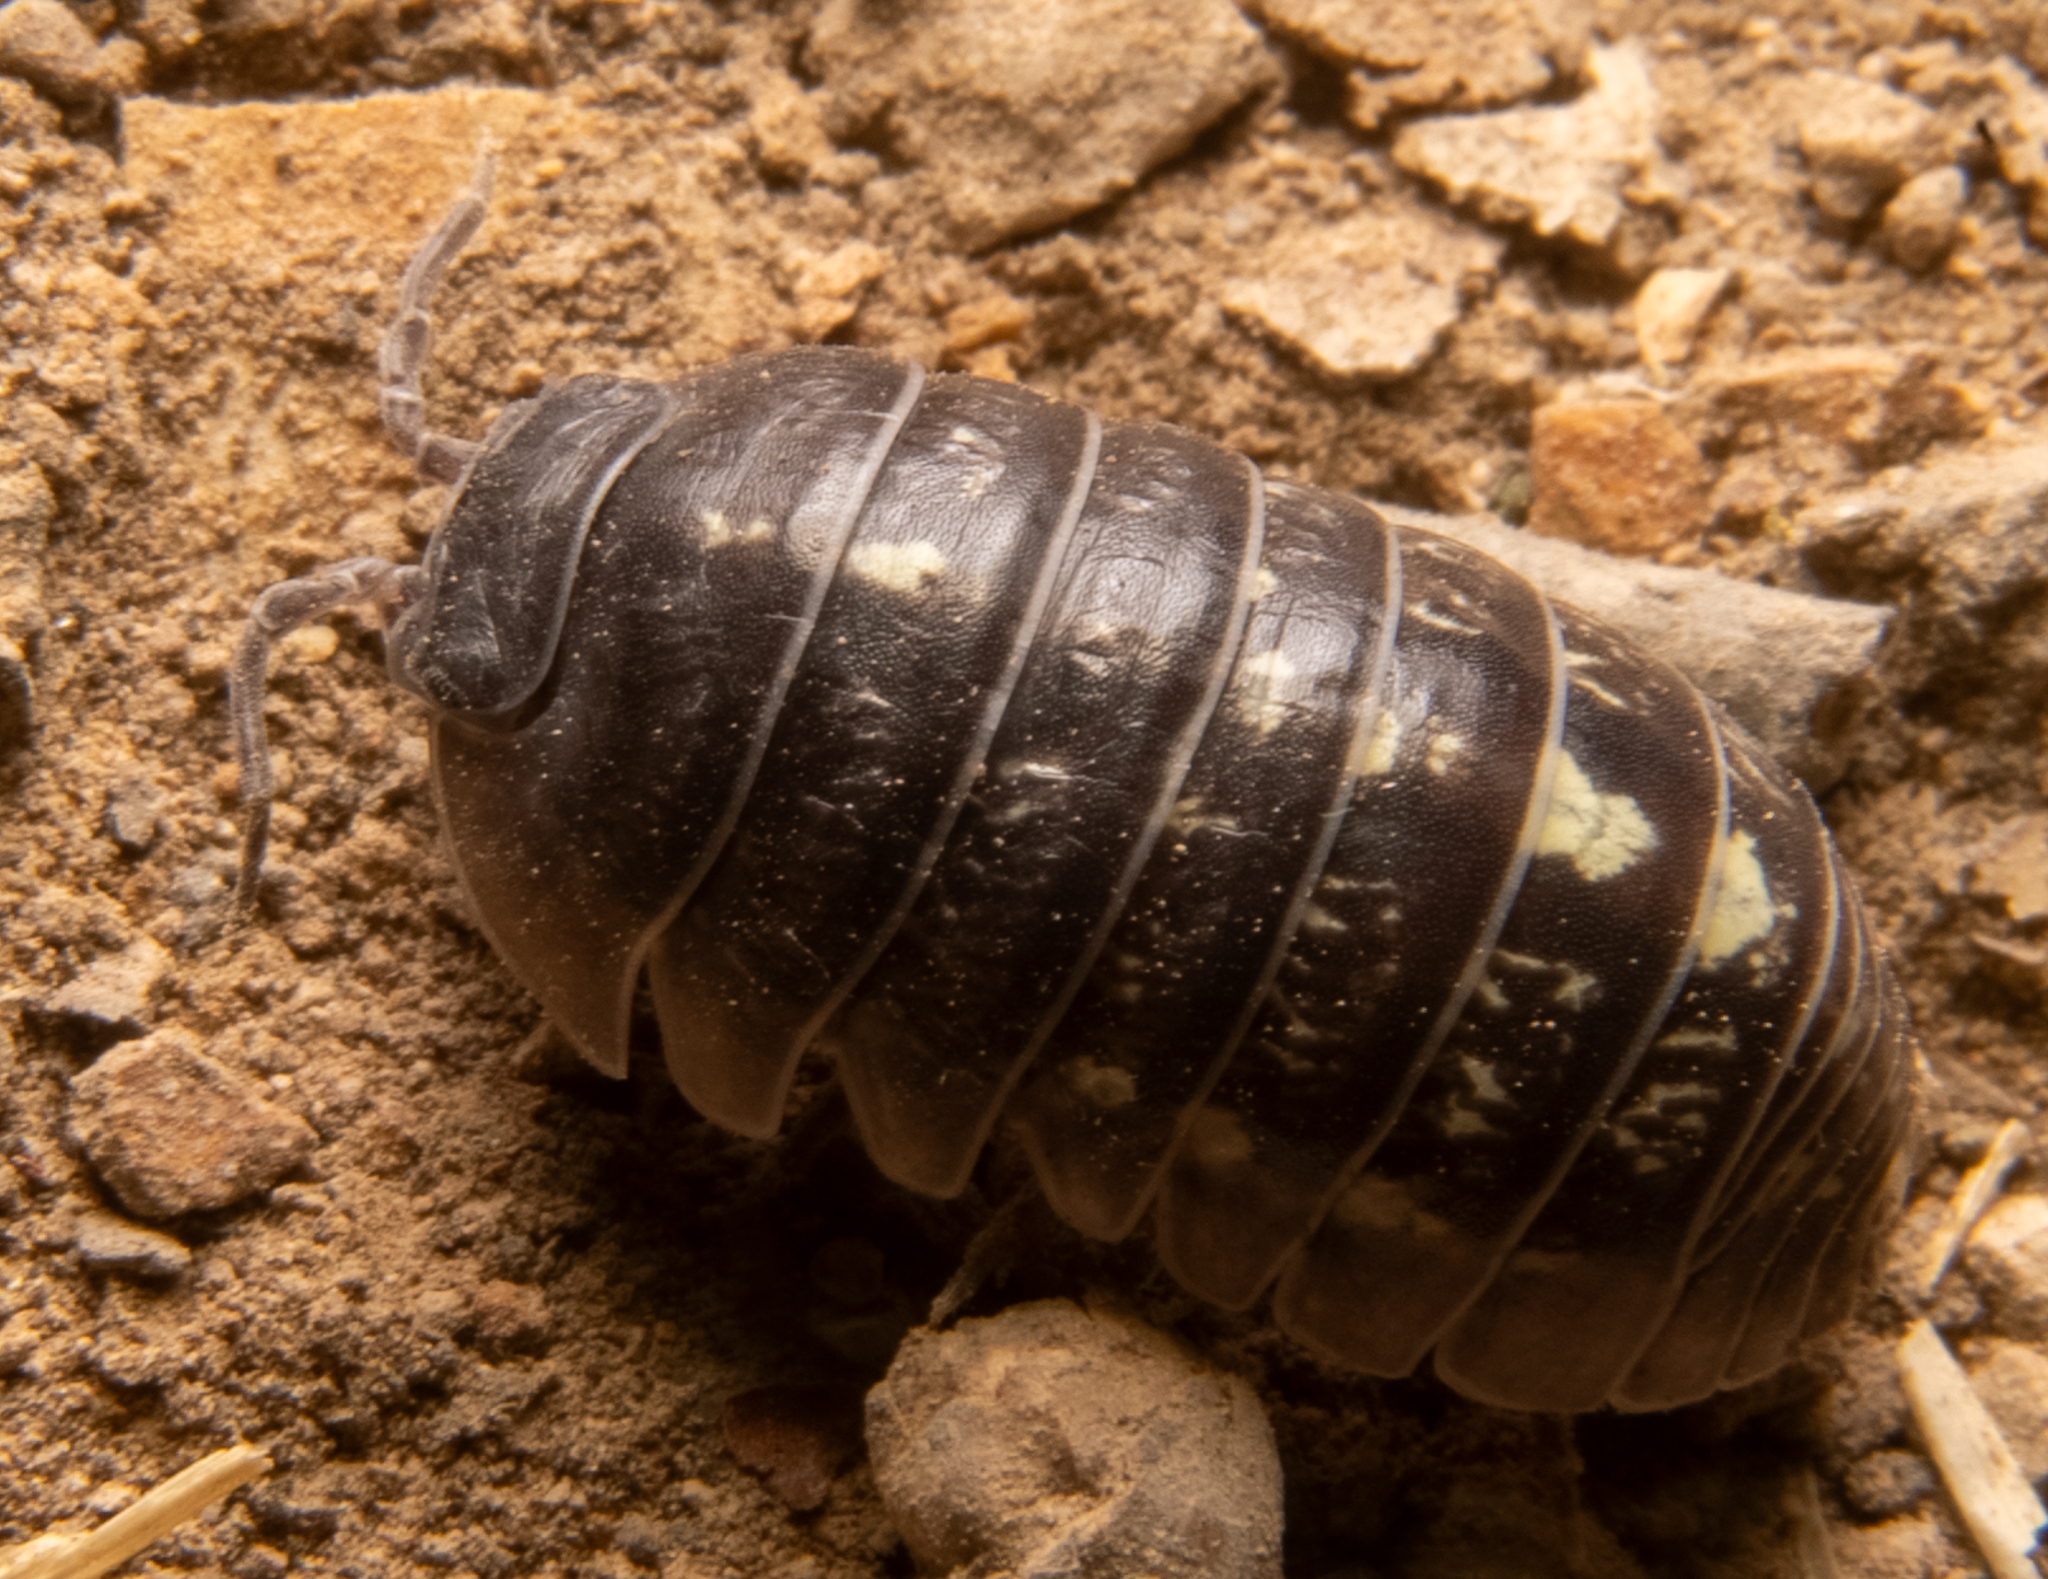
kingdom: Animalia
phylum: Arthropoda
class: Malacostraca
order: Isopoda
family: Armadillidiidae
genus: Armadillidium
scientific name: Armadillidium vulgare
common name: Common pill woodlouse
